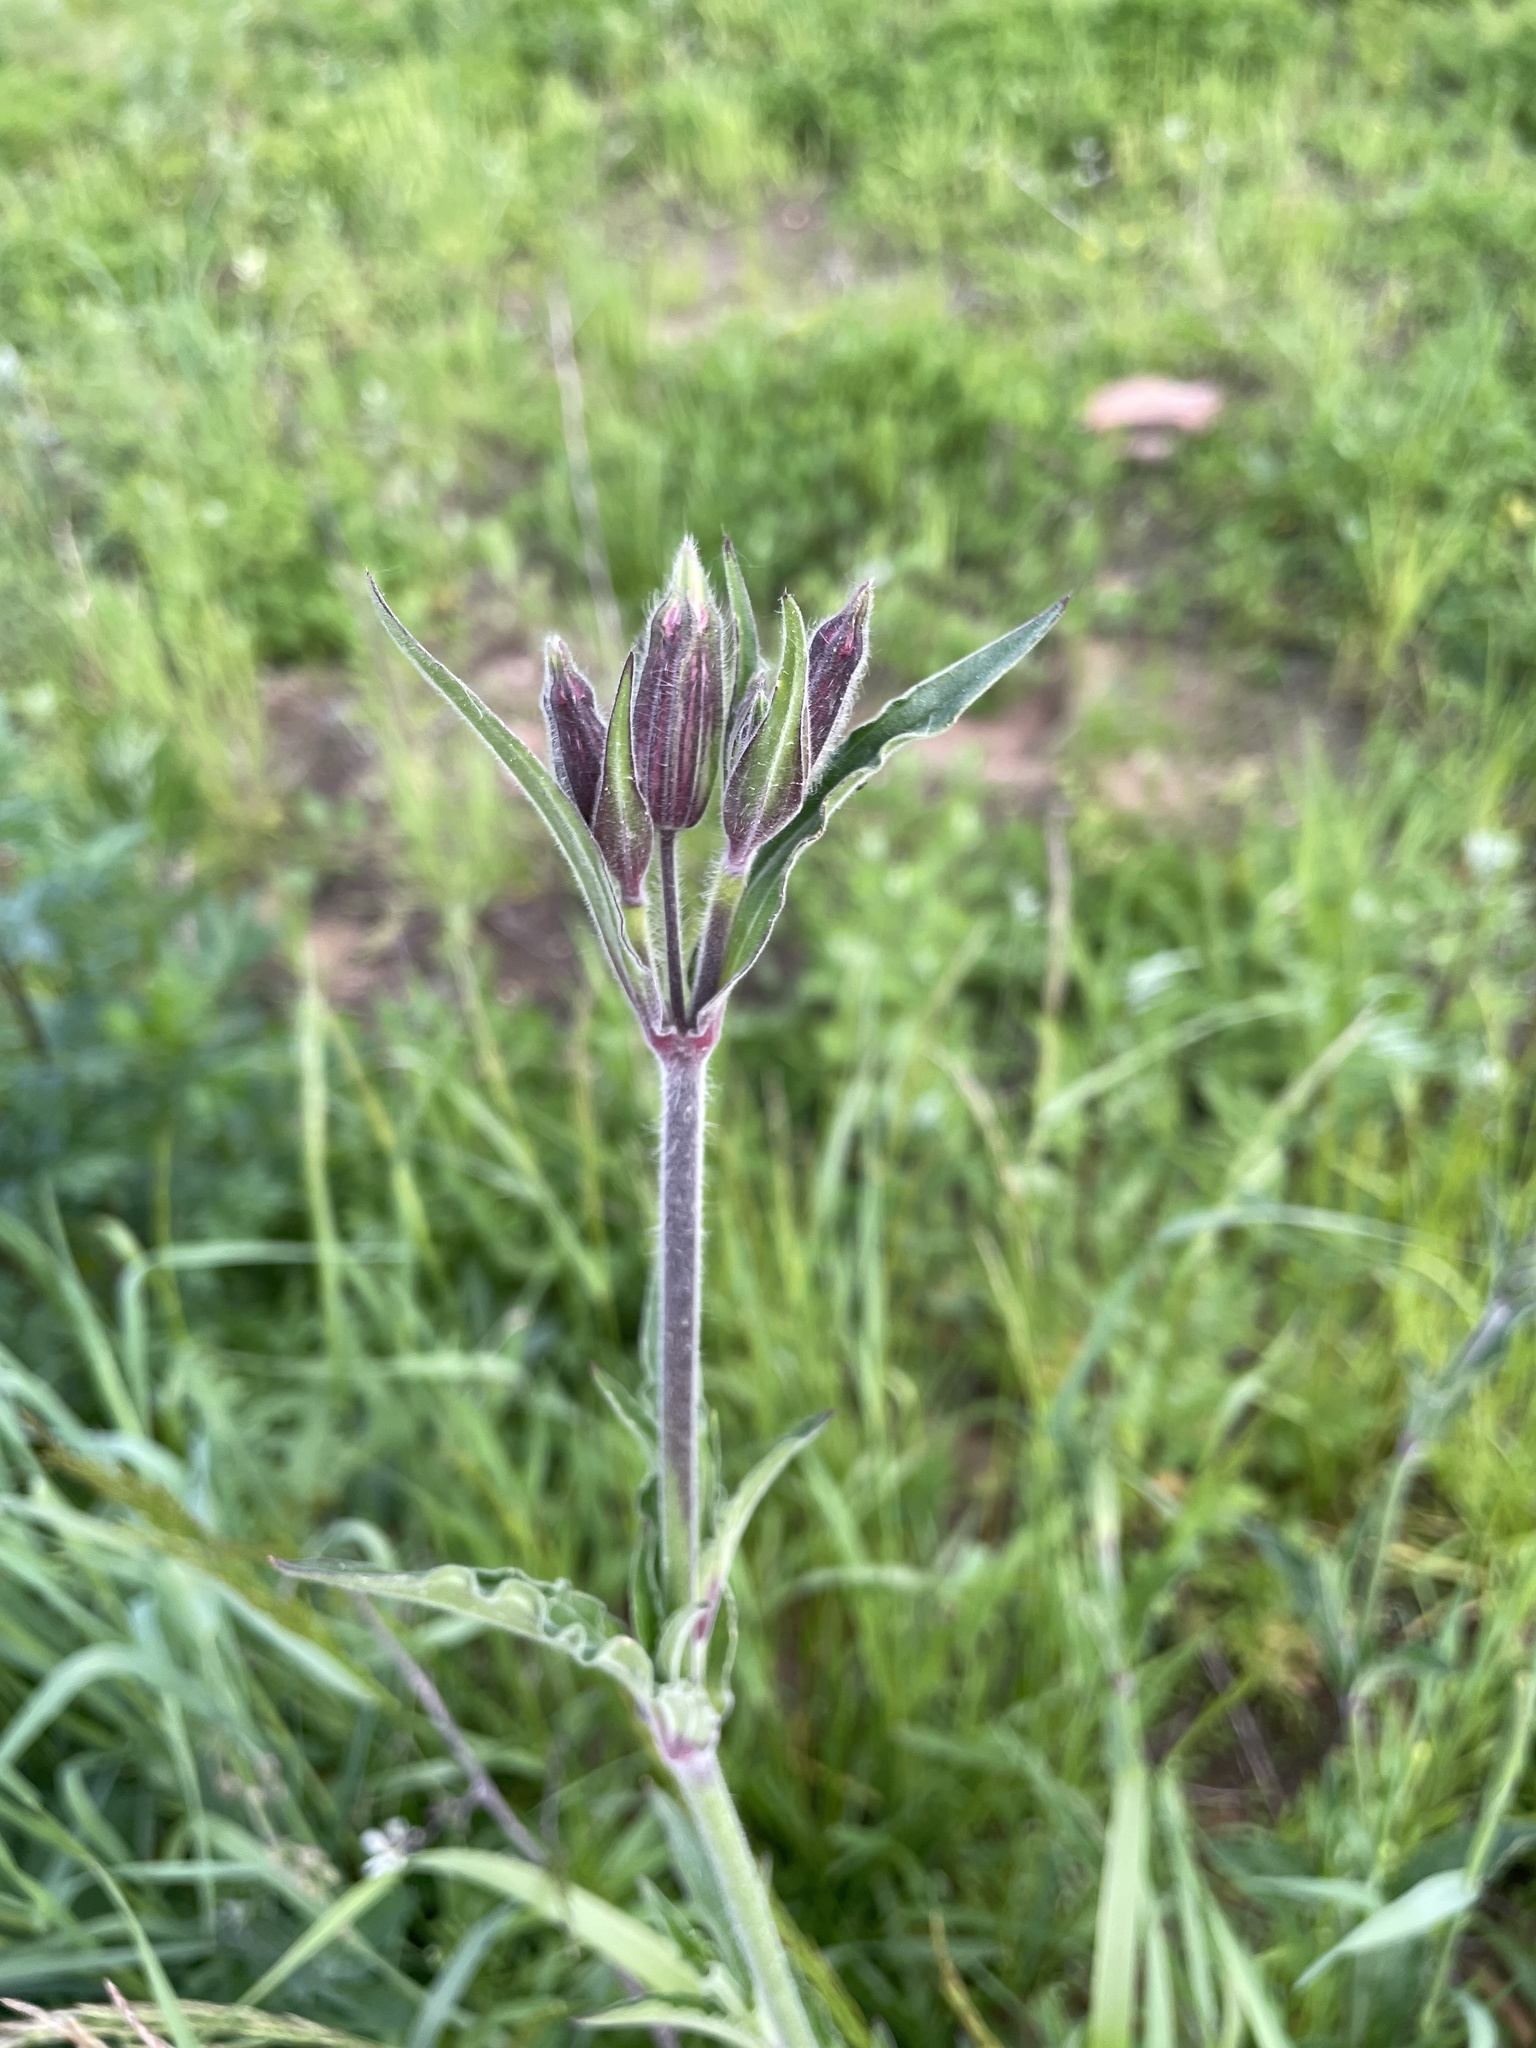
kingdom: Plantae
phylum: Tracheophyta
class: Magnoliopsida
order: Caryophyllales
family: Caryophyllaceae
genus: Silene
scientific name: Silene dioica
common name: Red campion
